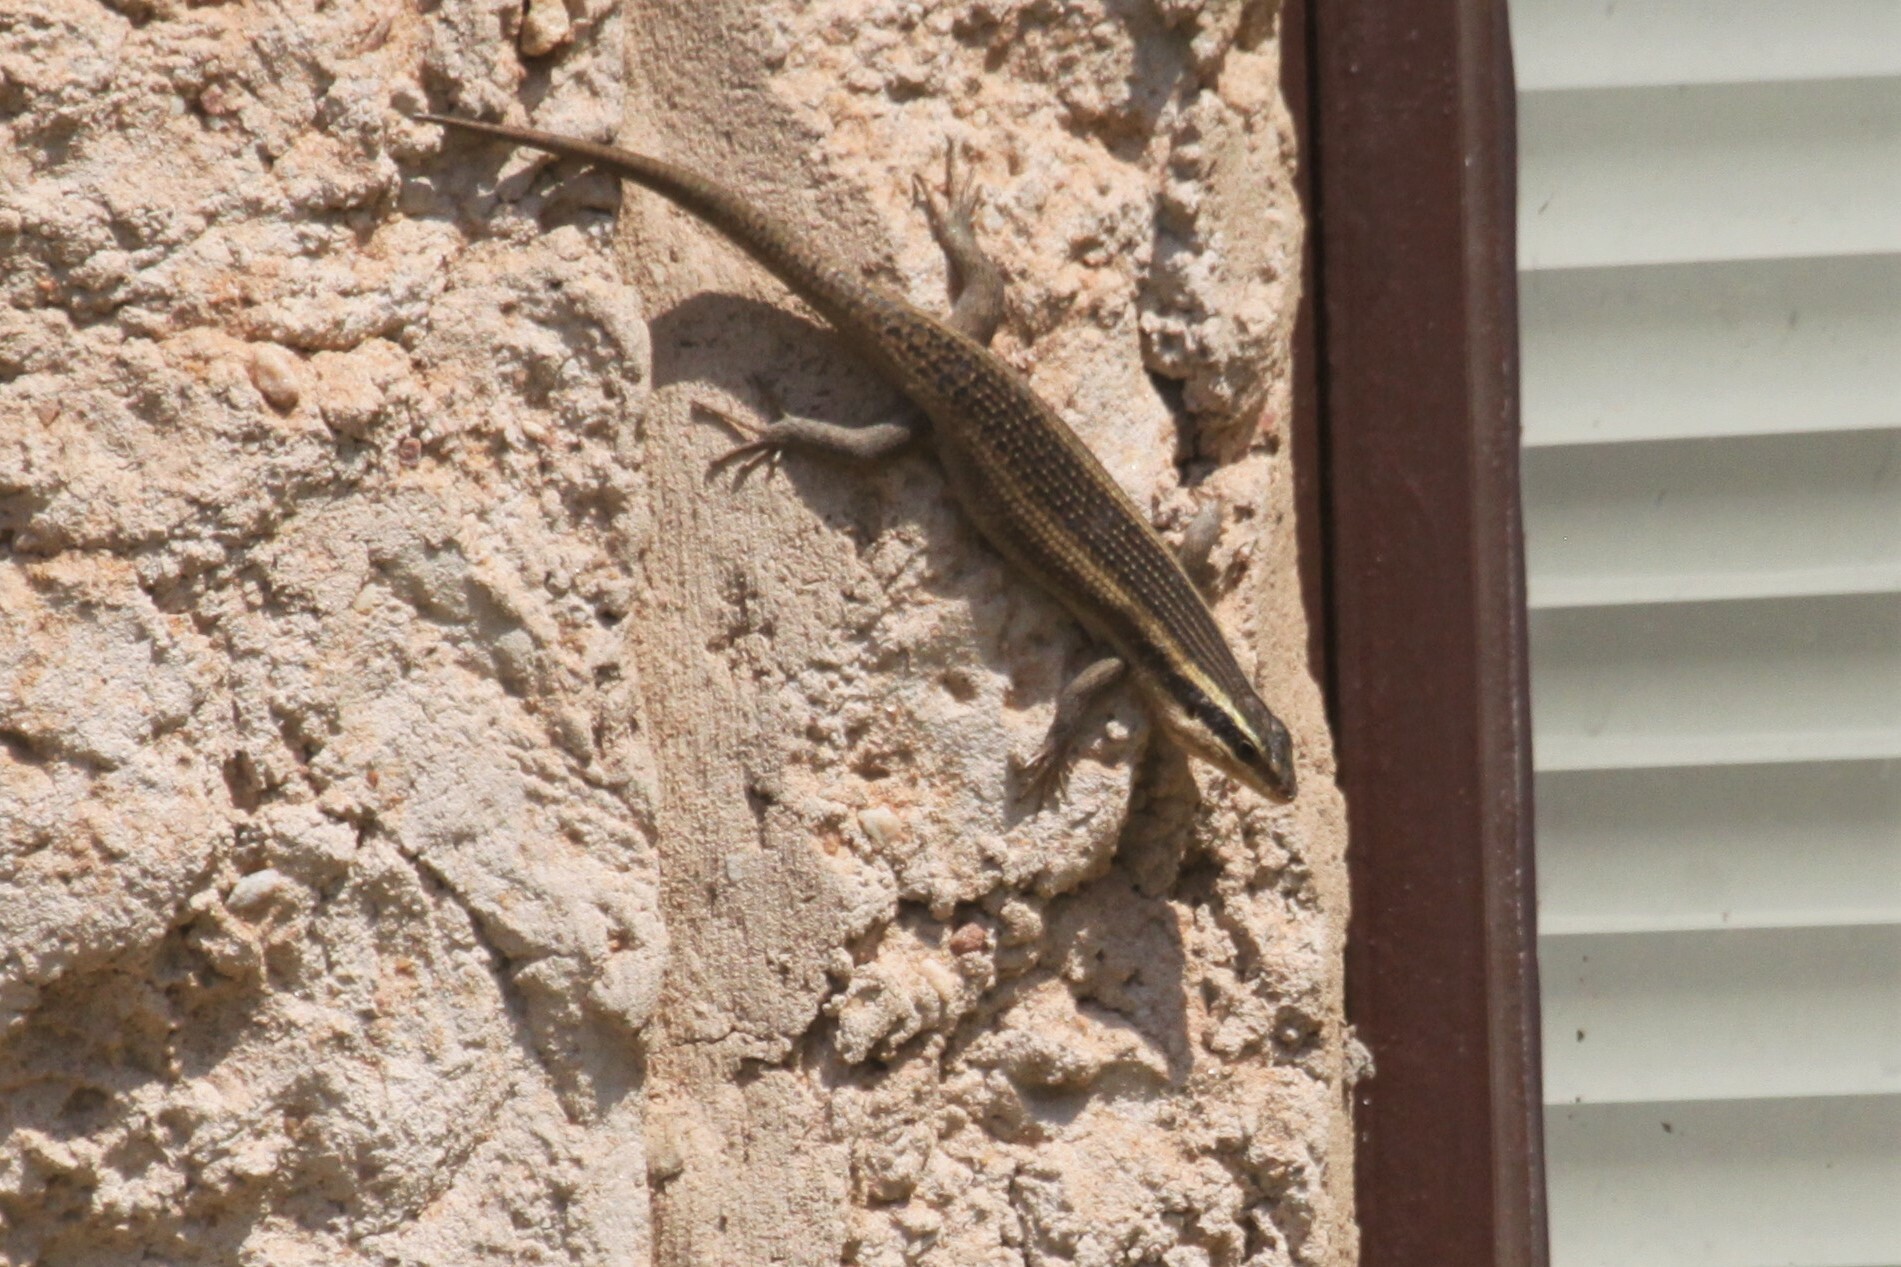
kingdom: Animalia
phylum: Chordata
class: Squamata
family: Scincidae
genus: Trachylepis
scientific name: Trachylepis punctatissima
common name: Montane speckled skink
